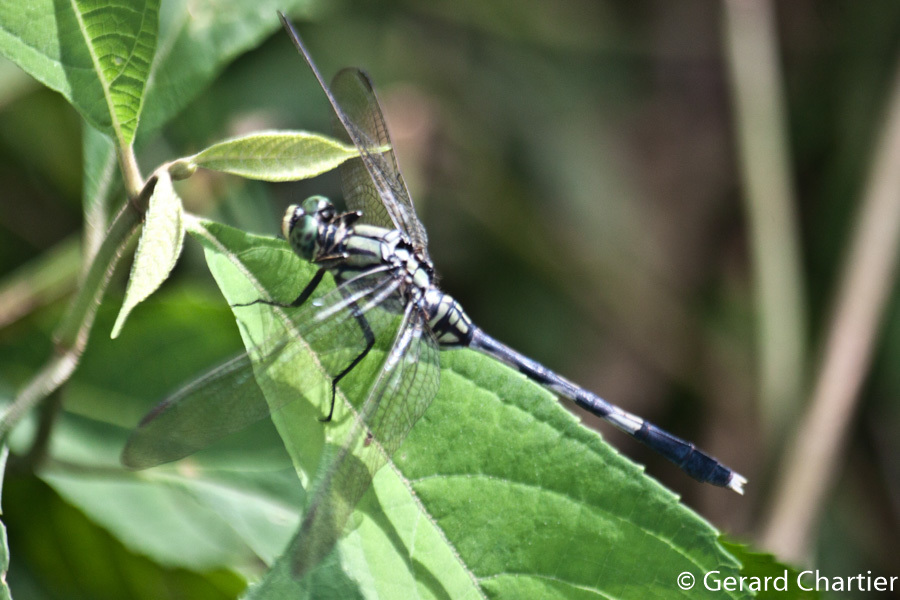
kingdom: Animalia
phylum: Arthropoda
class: Insecta
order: Odonata
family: Libellulidae
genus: Orthetrum
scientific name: Orthetrum sabina
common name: Slender skimmer
